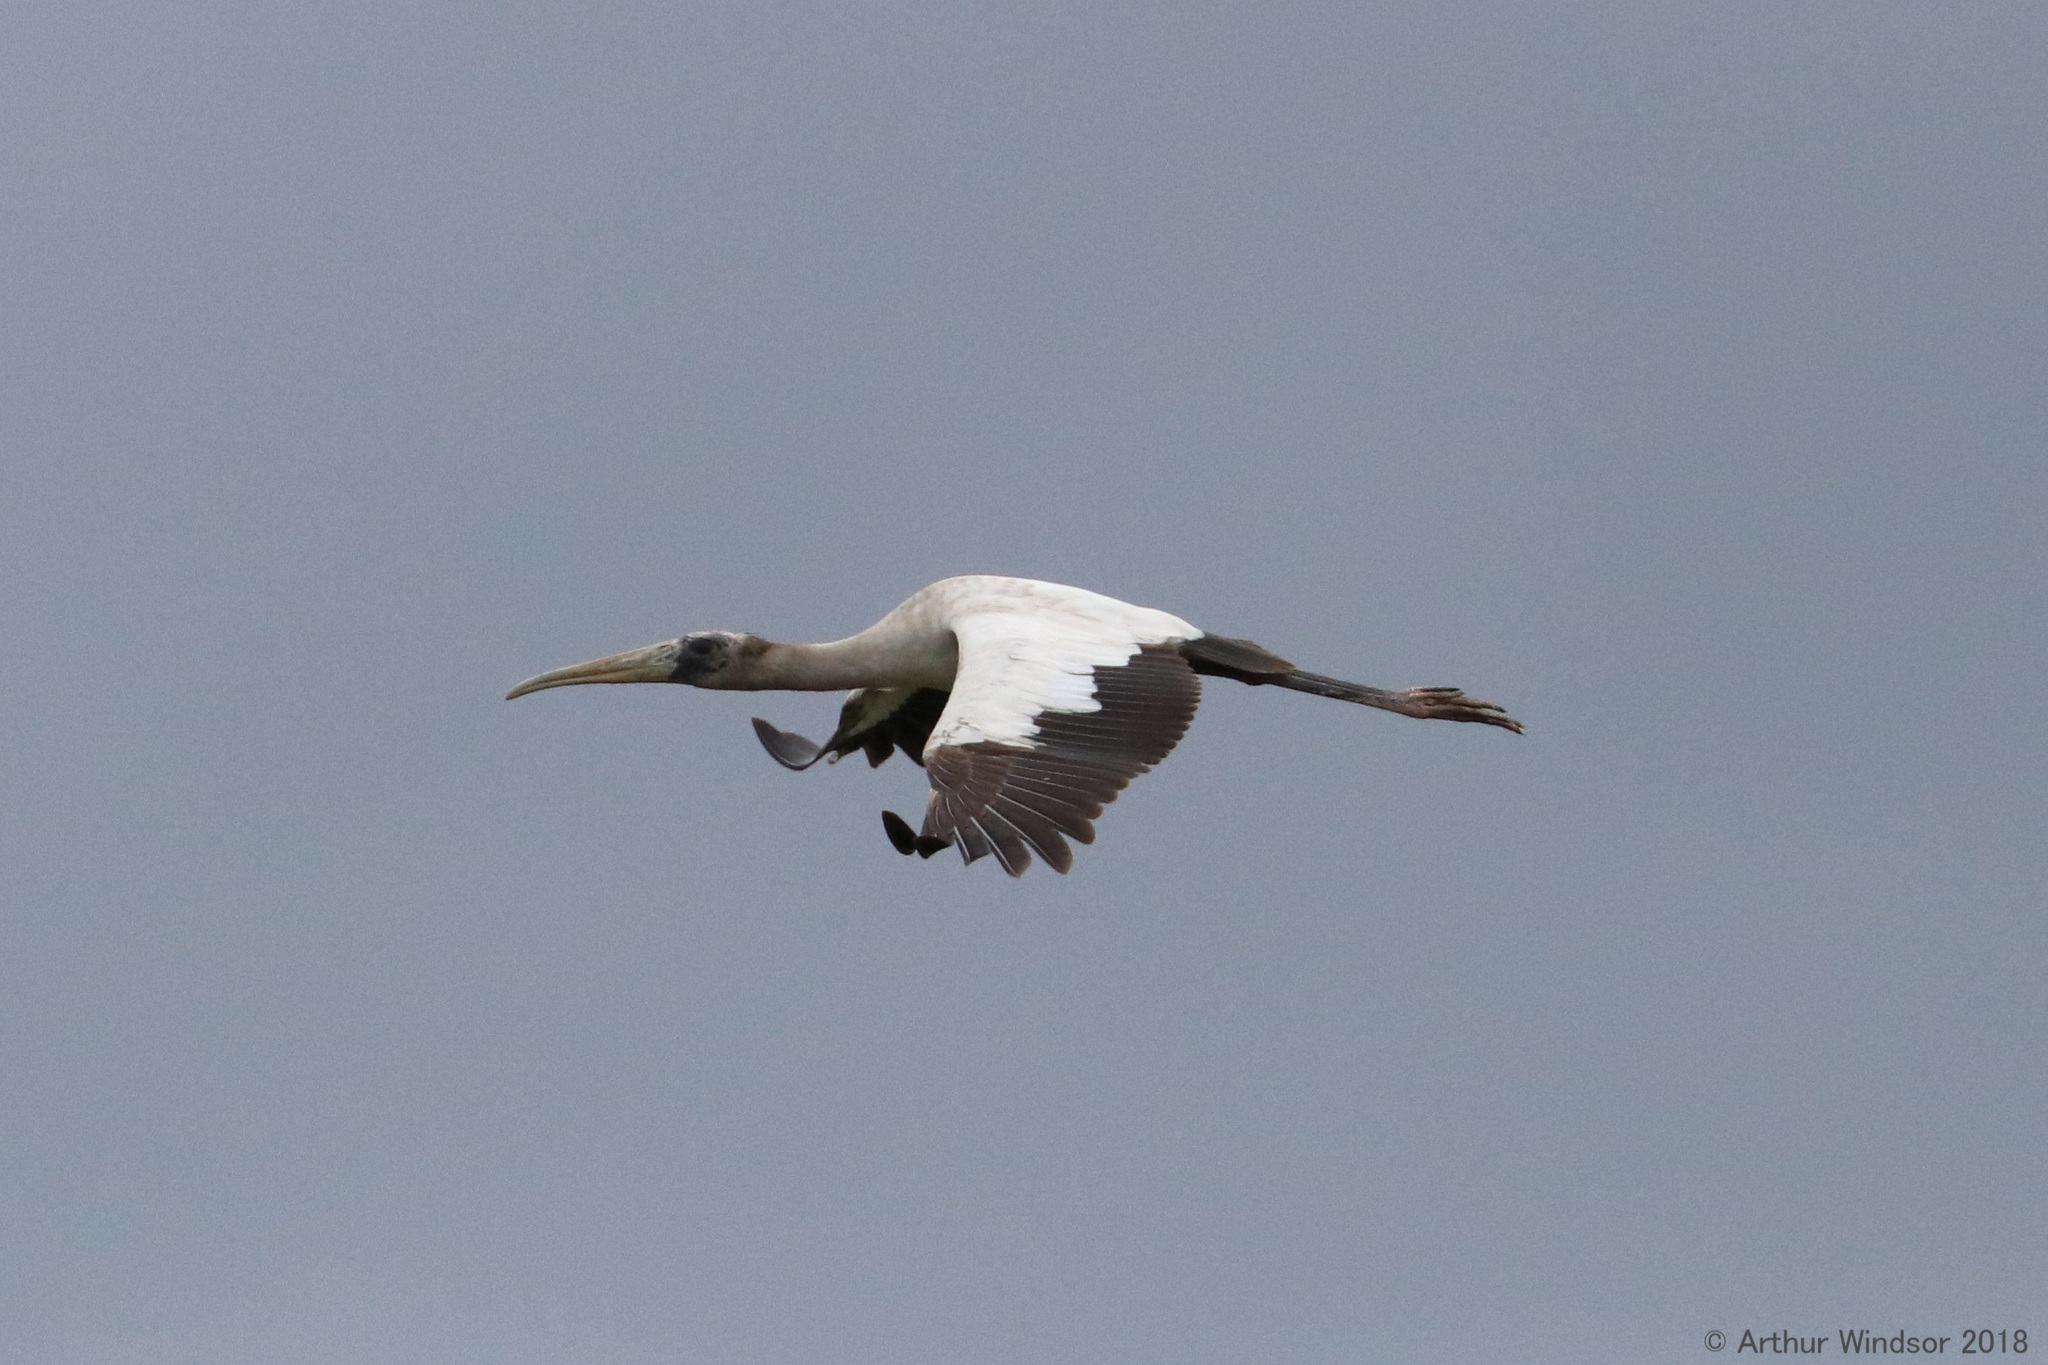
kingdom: Animalia
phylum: Chordata
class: Aves
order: Ciconiiformes
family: Ciconiidae
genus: Mycteria
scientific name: Mycteria americana
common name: Wood stork
